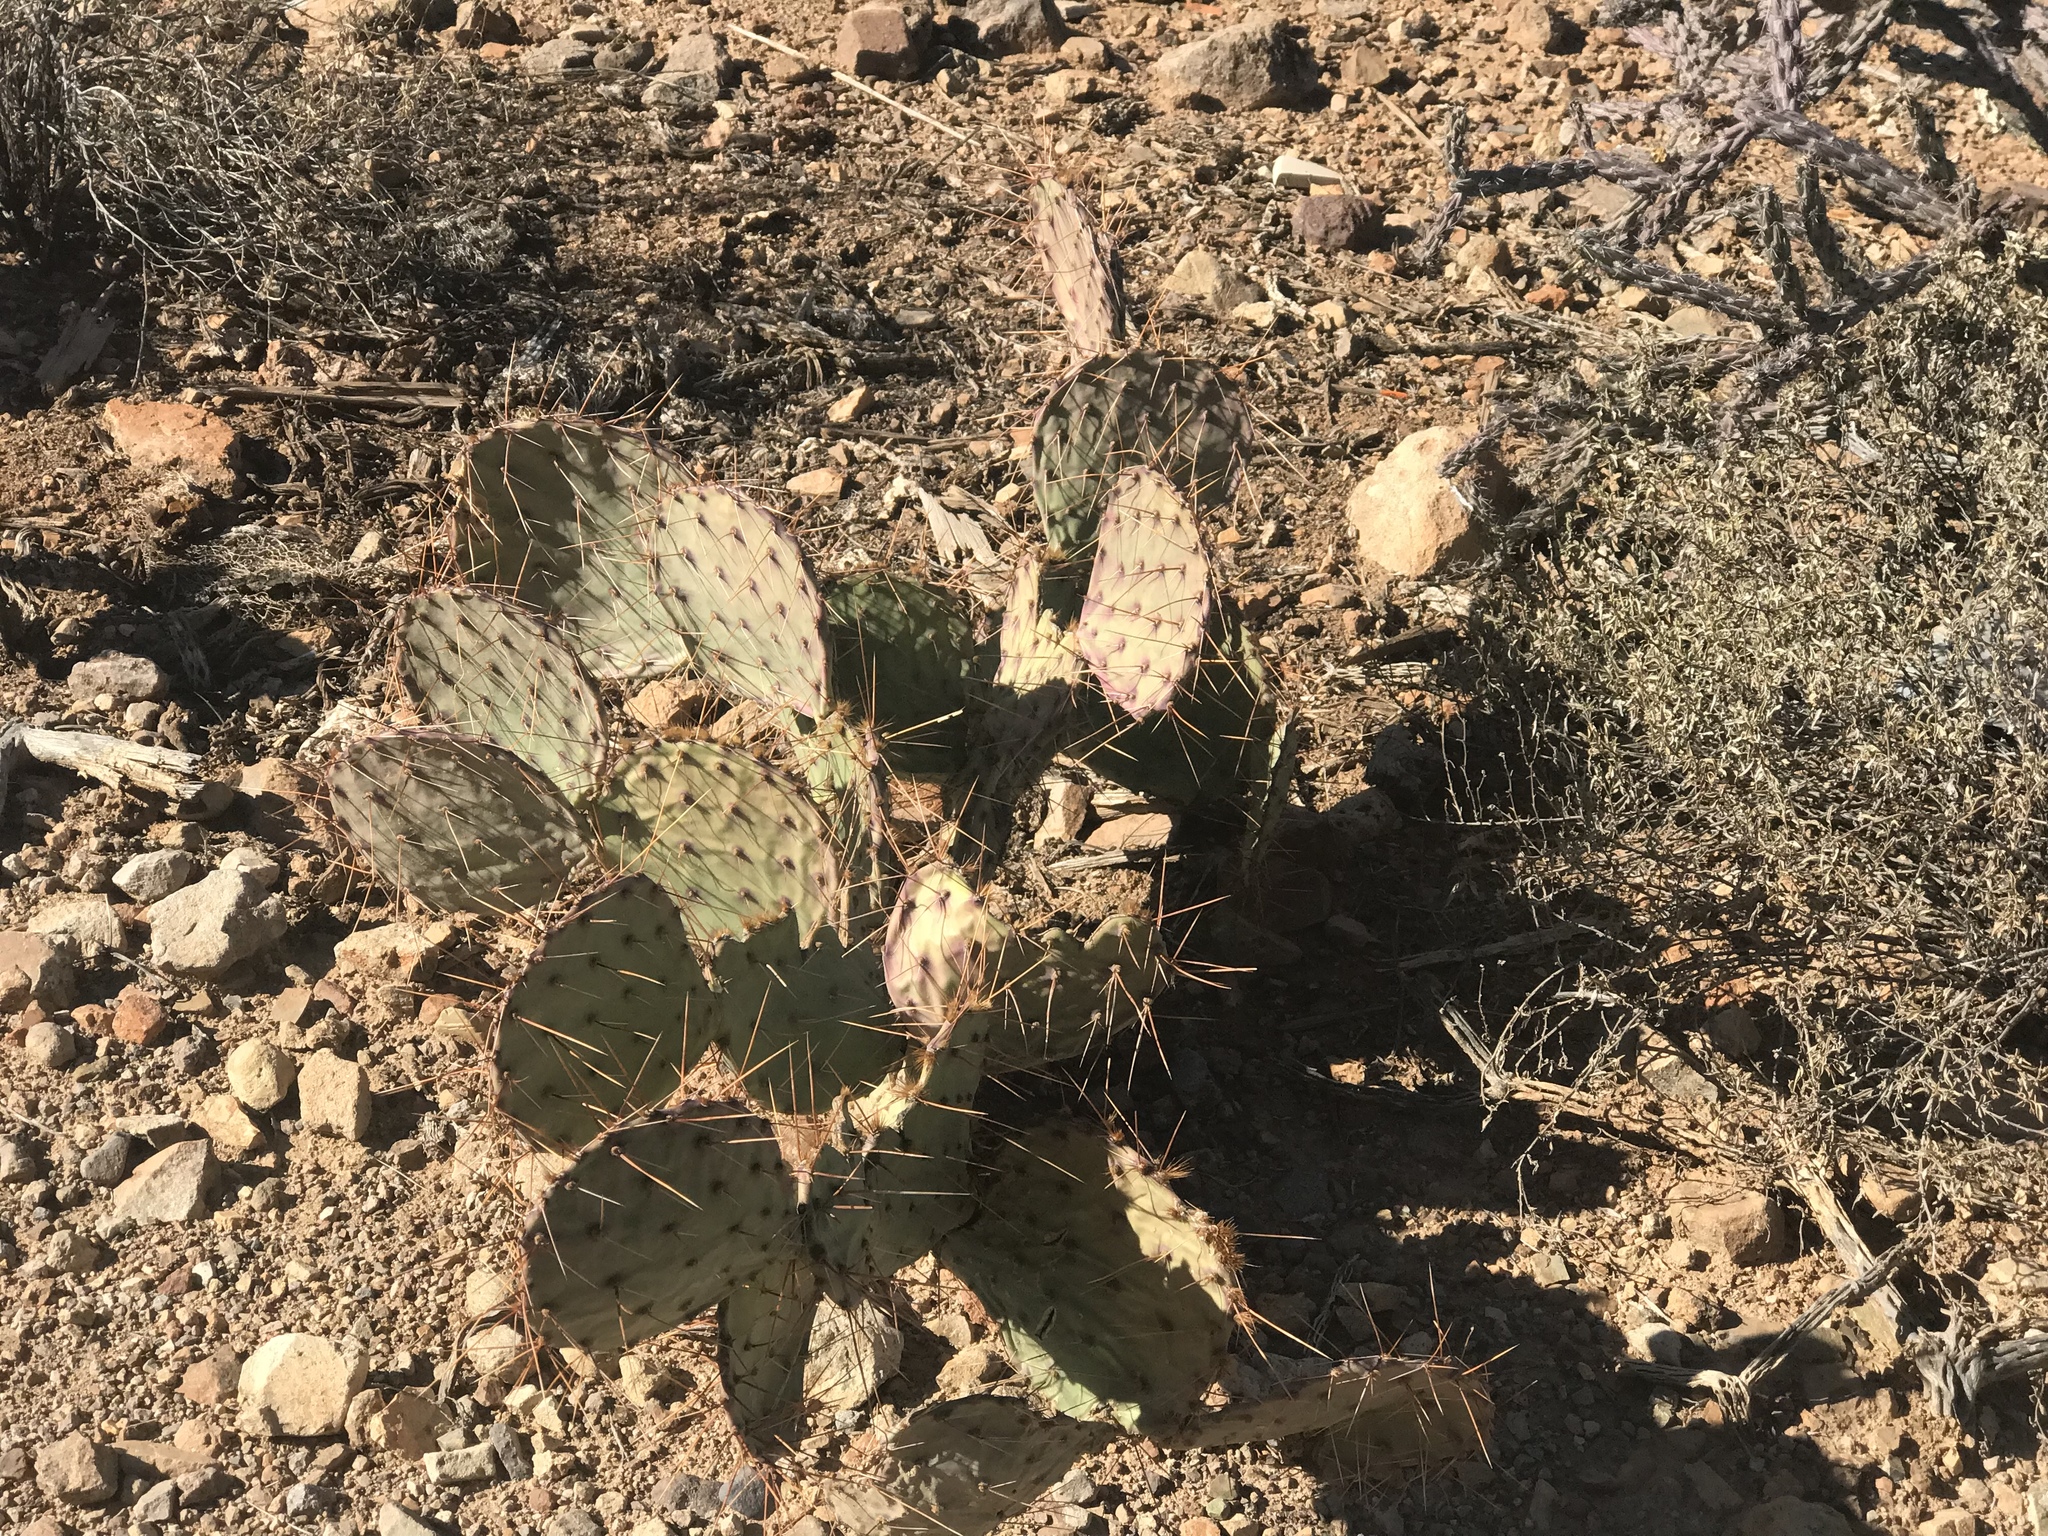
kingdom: Plantae
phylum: Tracheophyta
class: Magnoliopsida
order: Caryophyllales
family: Cactaceae
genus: Opuntia
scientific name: Opuntia phaeacantha
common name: New mexico prickly-pear
